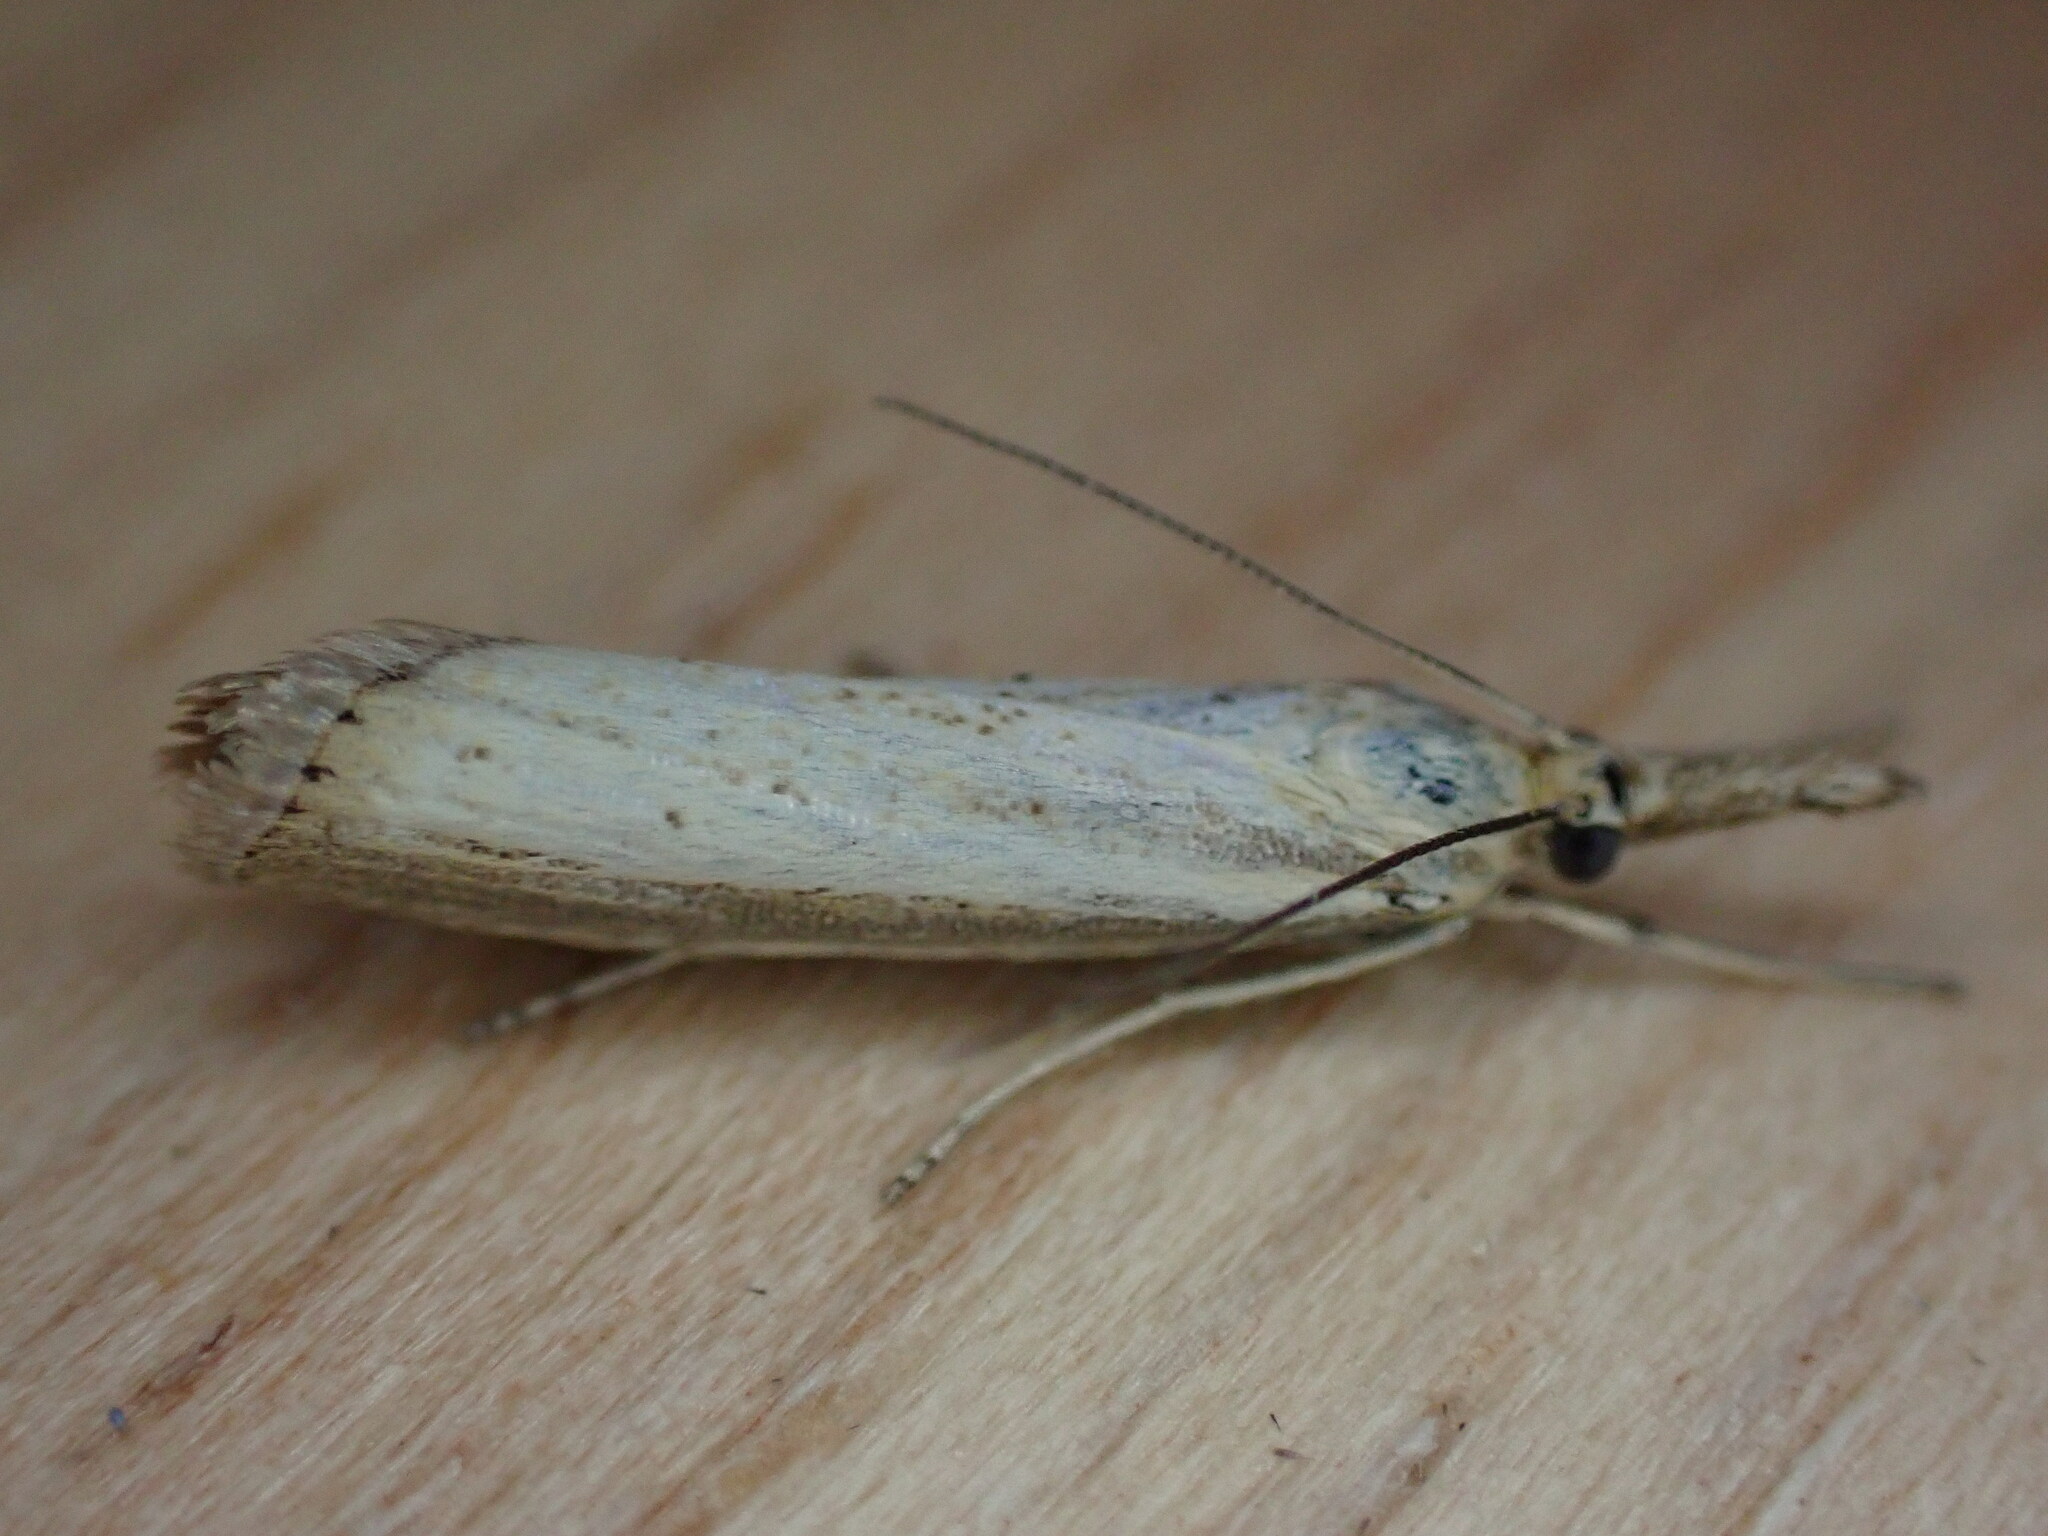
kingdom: Animalia
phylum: Arthropoda
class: Insecta
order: Lepidoptera
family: Crambidae
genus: Agriphila
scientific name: Agriphila straminella
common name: Straw grass-veneer
